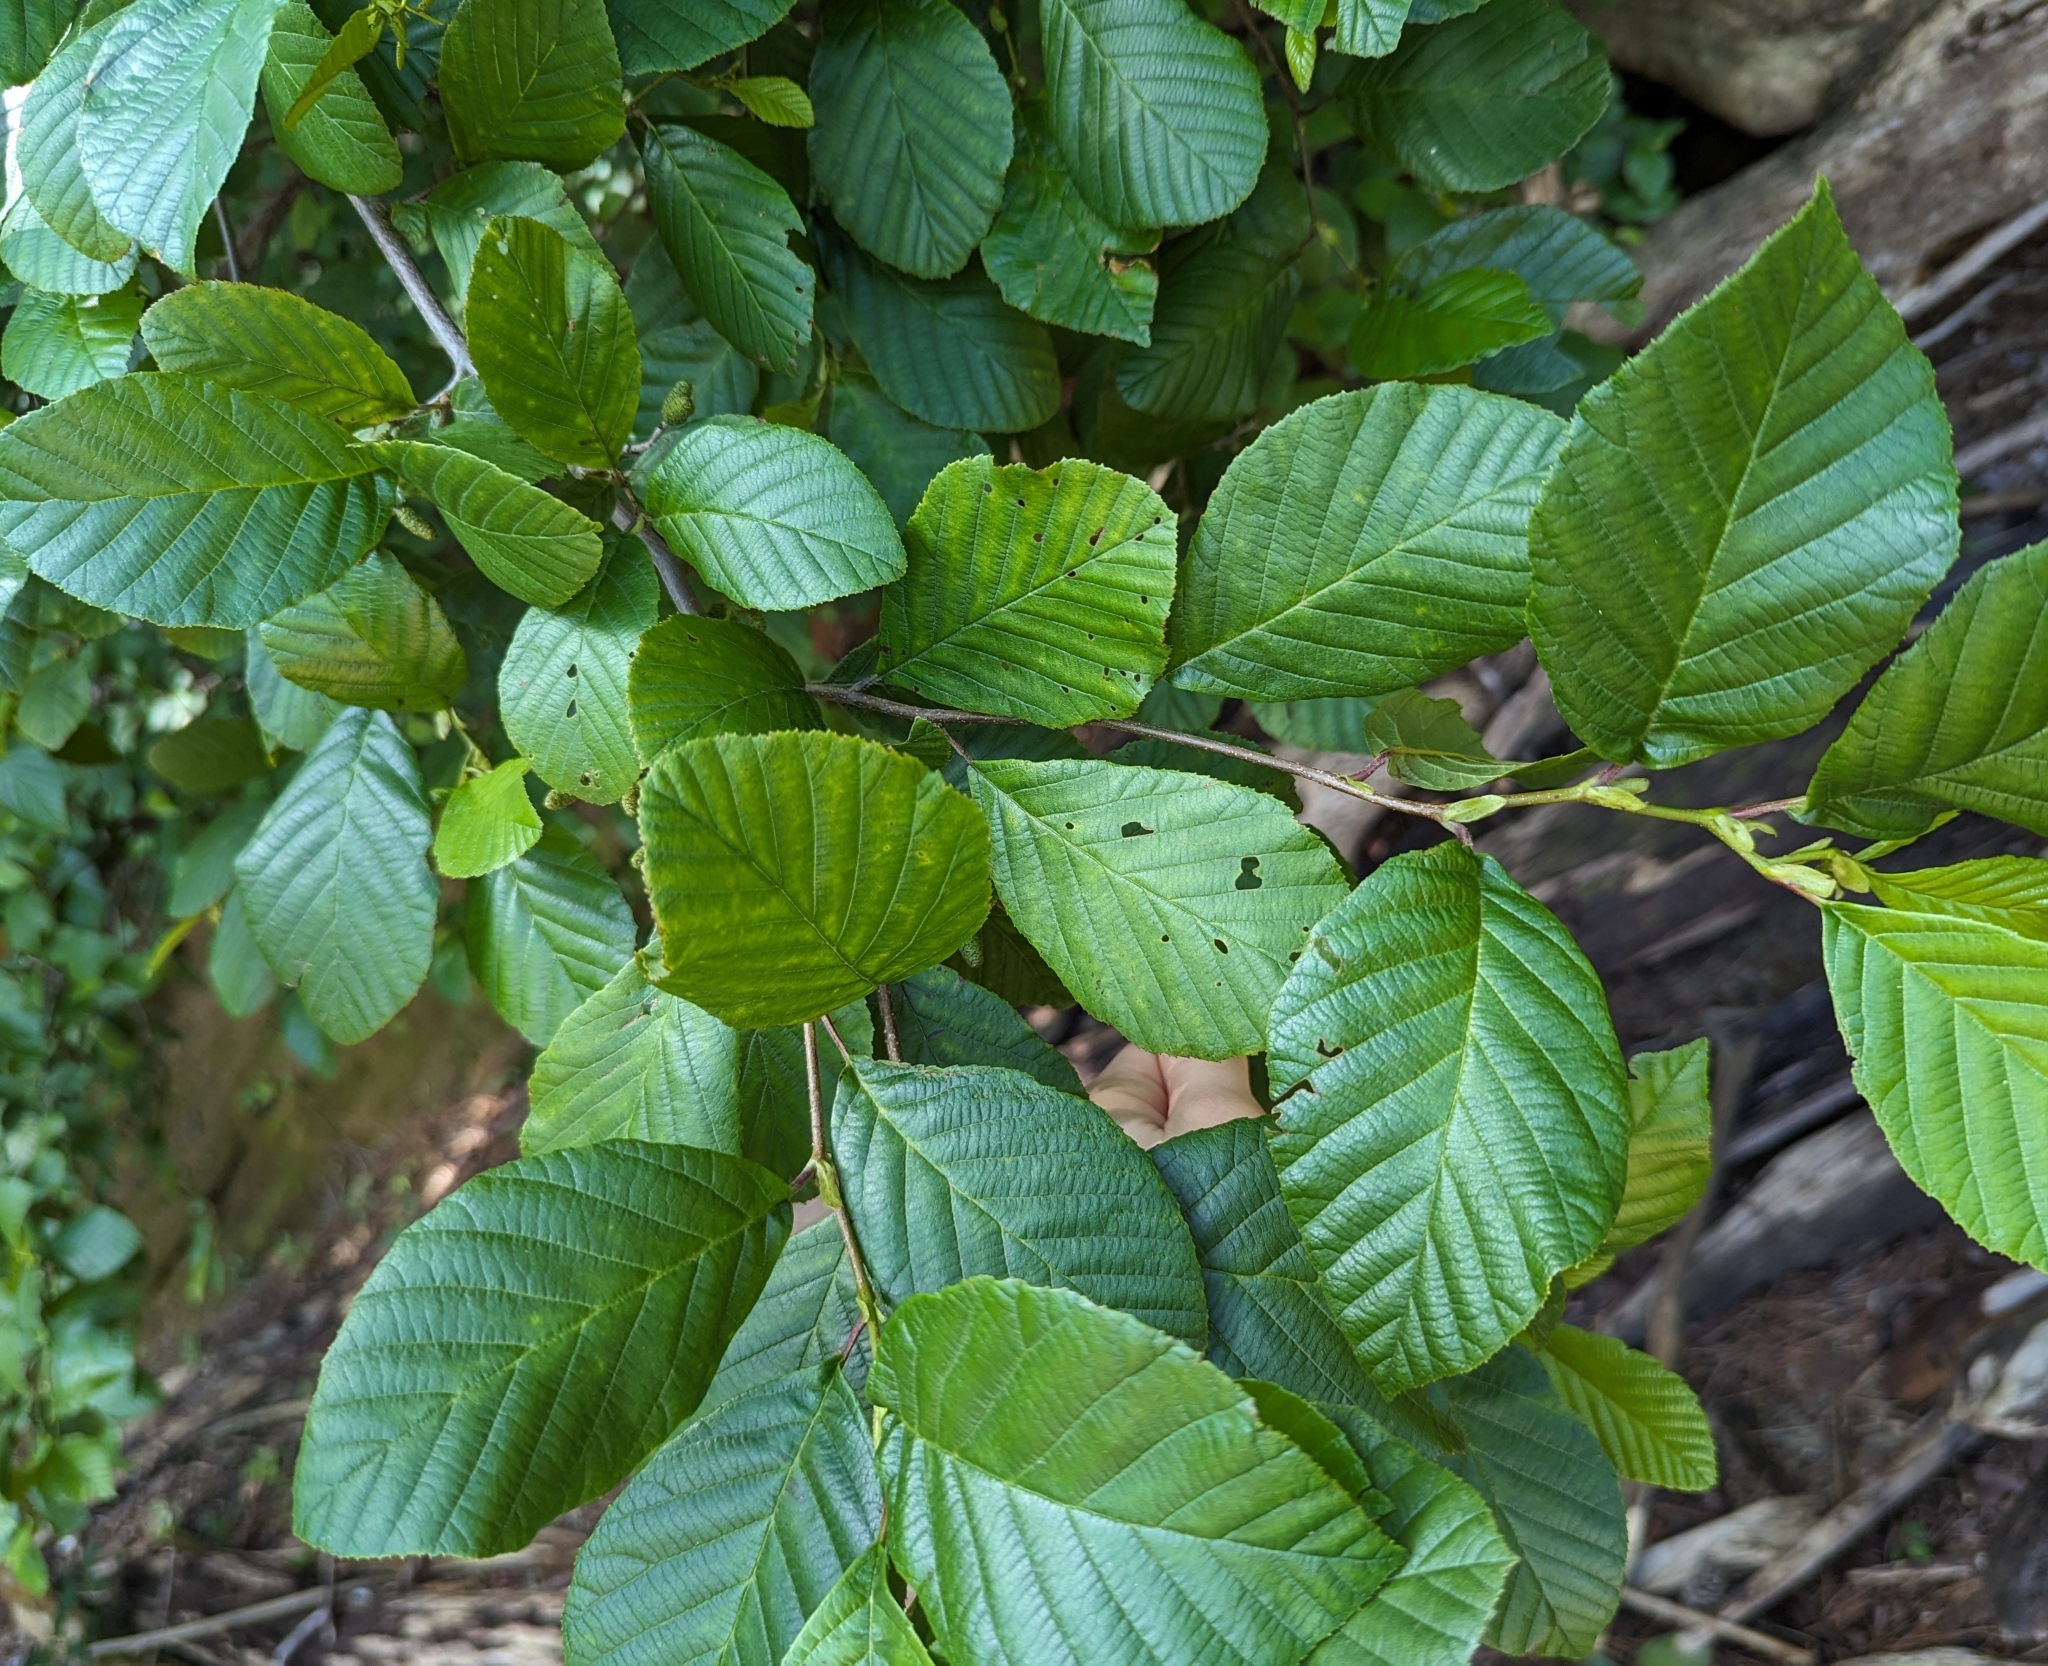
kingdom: Plantae
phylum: Tracheophyta
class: Magnoliopsida
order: Fagales
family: Betulaceae
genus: Alnus
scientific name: Alnus serrulata
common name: Hazel alder
